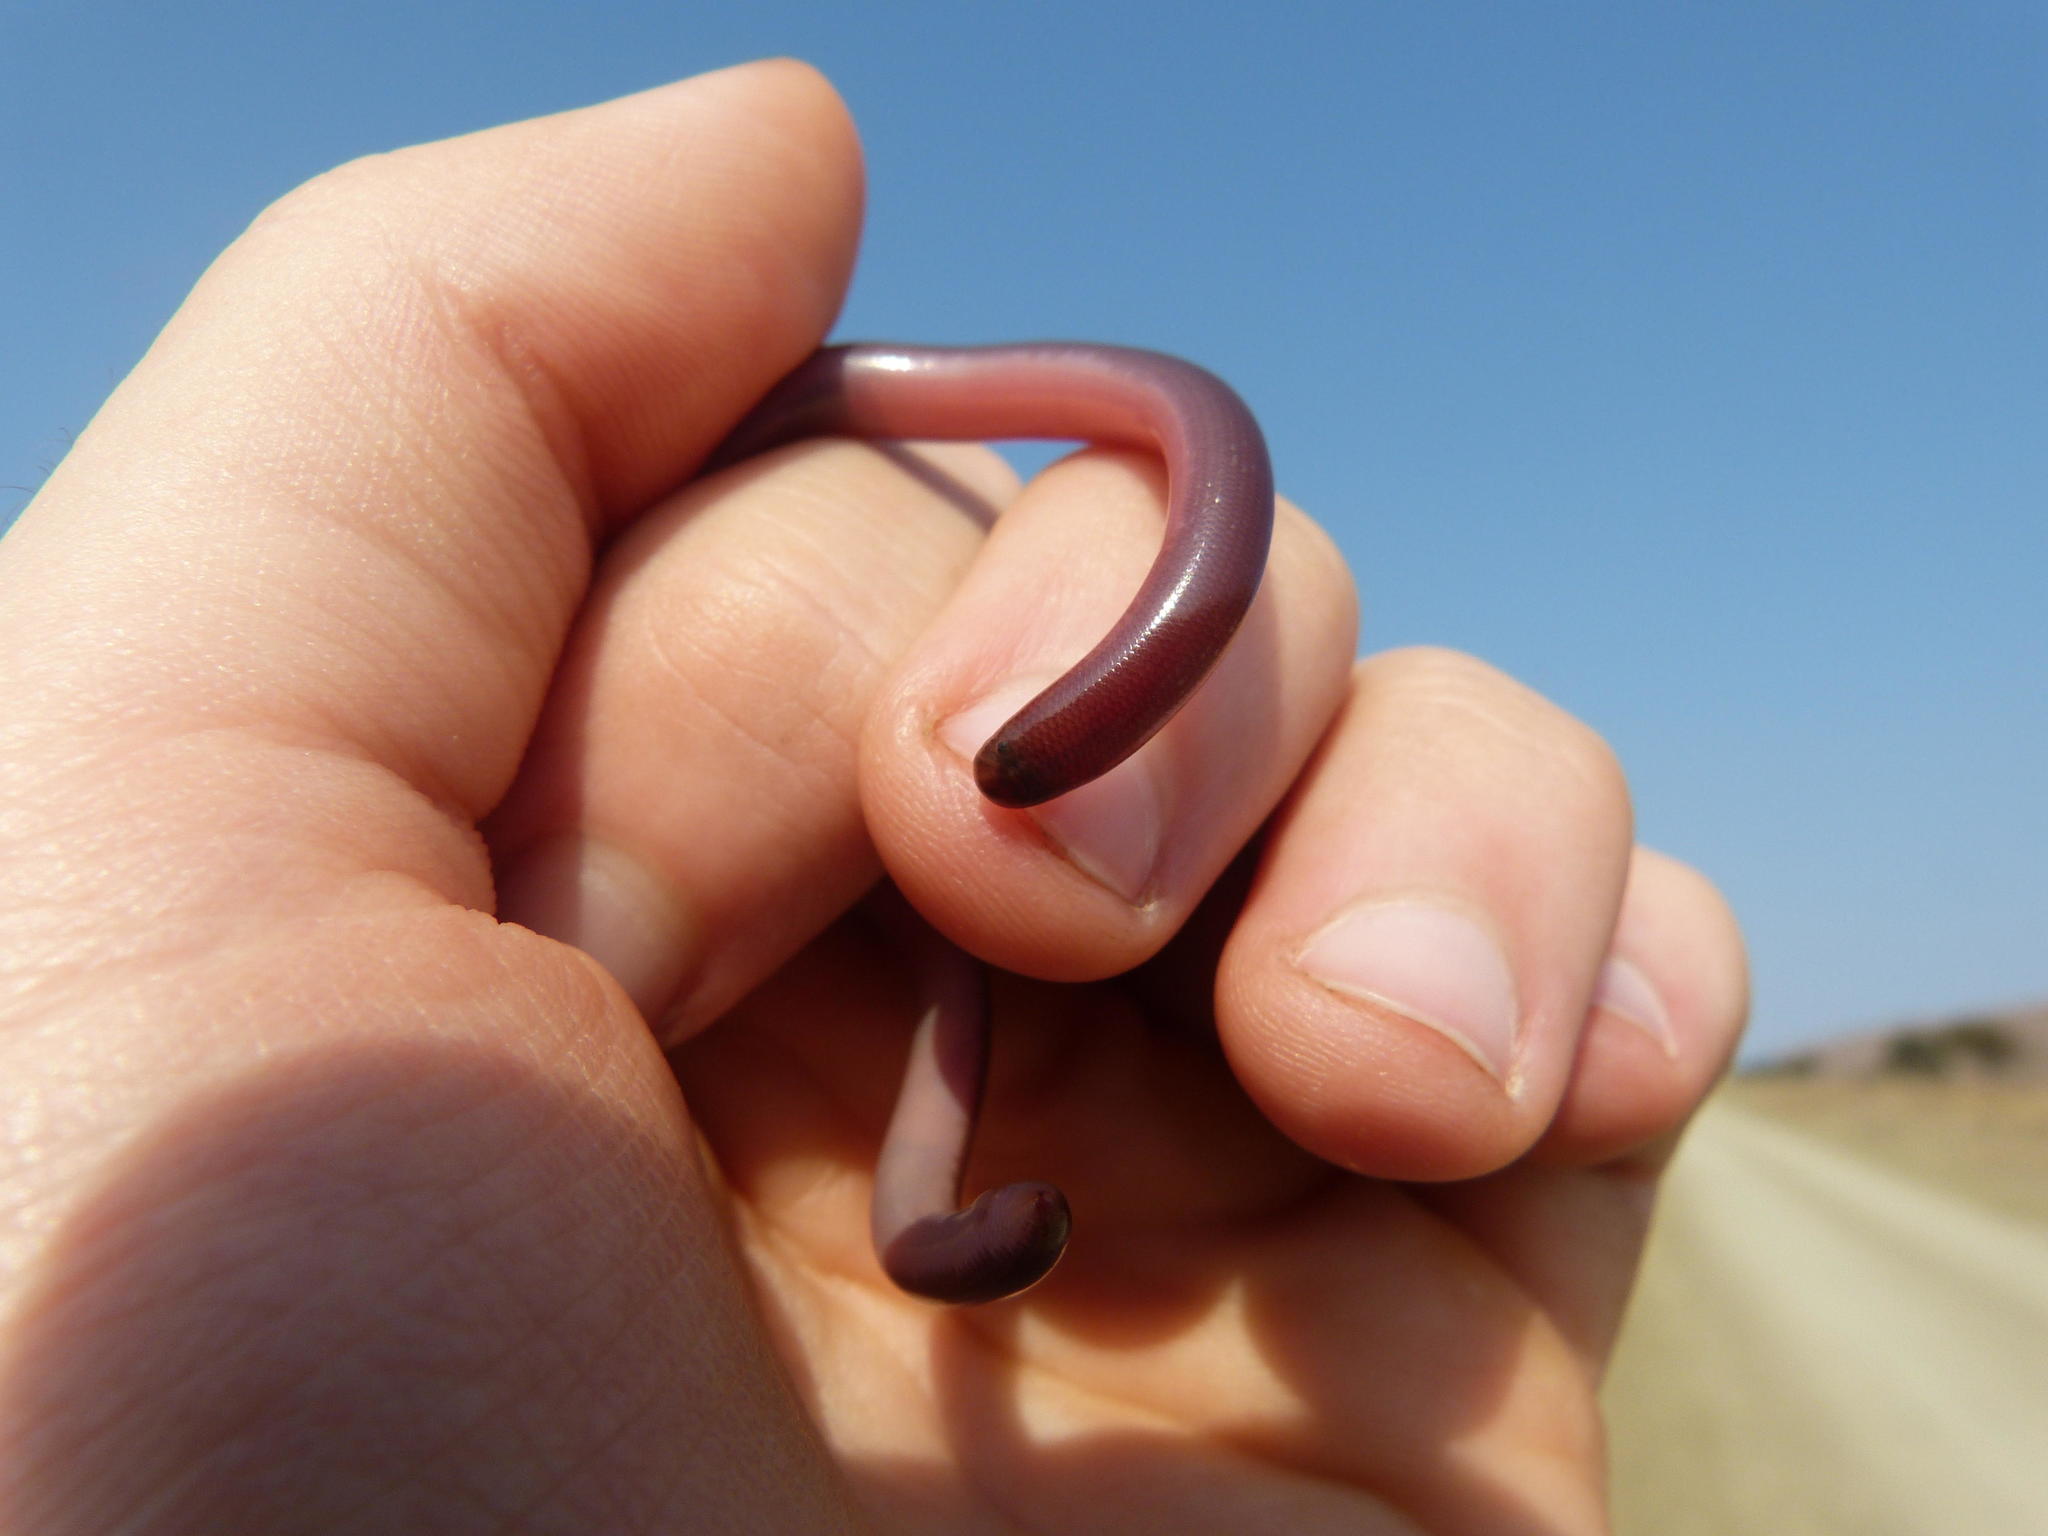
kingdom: Animalia
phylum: Chordata
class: Squamata
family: Typhlopidae
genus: Afrotyphlops
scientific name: Afrotyphlops bibronii
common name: Bibron's blind snake
